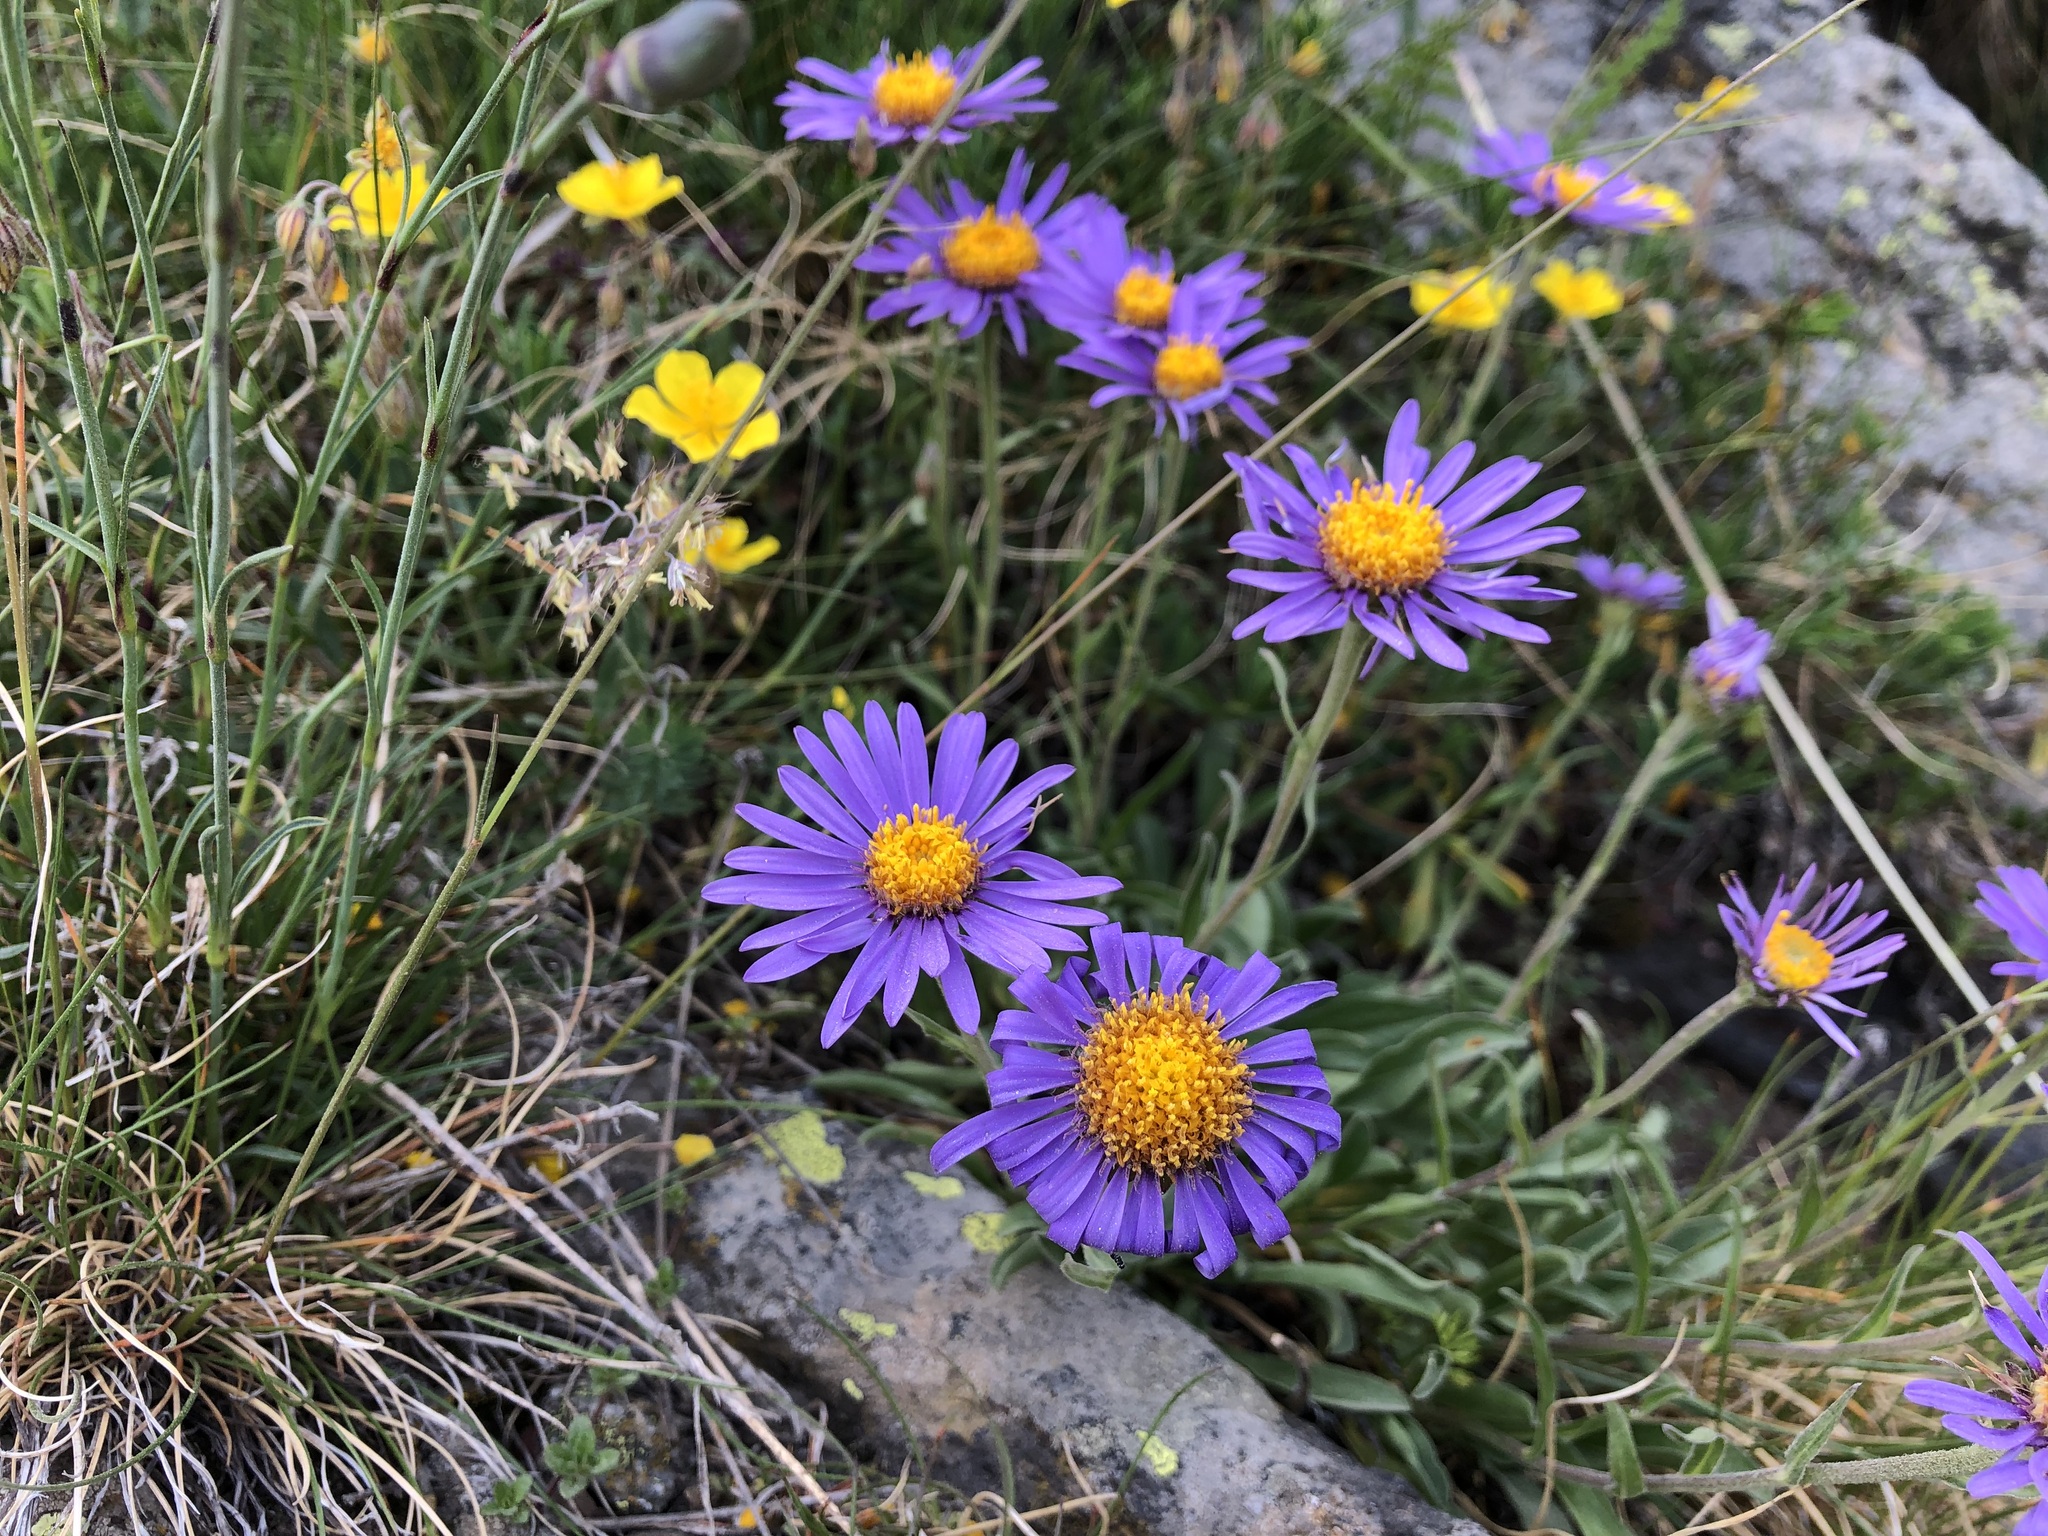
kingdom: Plantae
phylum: Tracheophyta
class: Magnoliopsida
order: Asterales
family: Asteraceae
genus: Aster
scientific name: Aster alpinus
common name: Alpine aster
